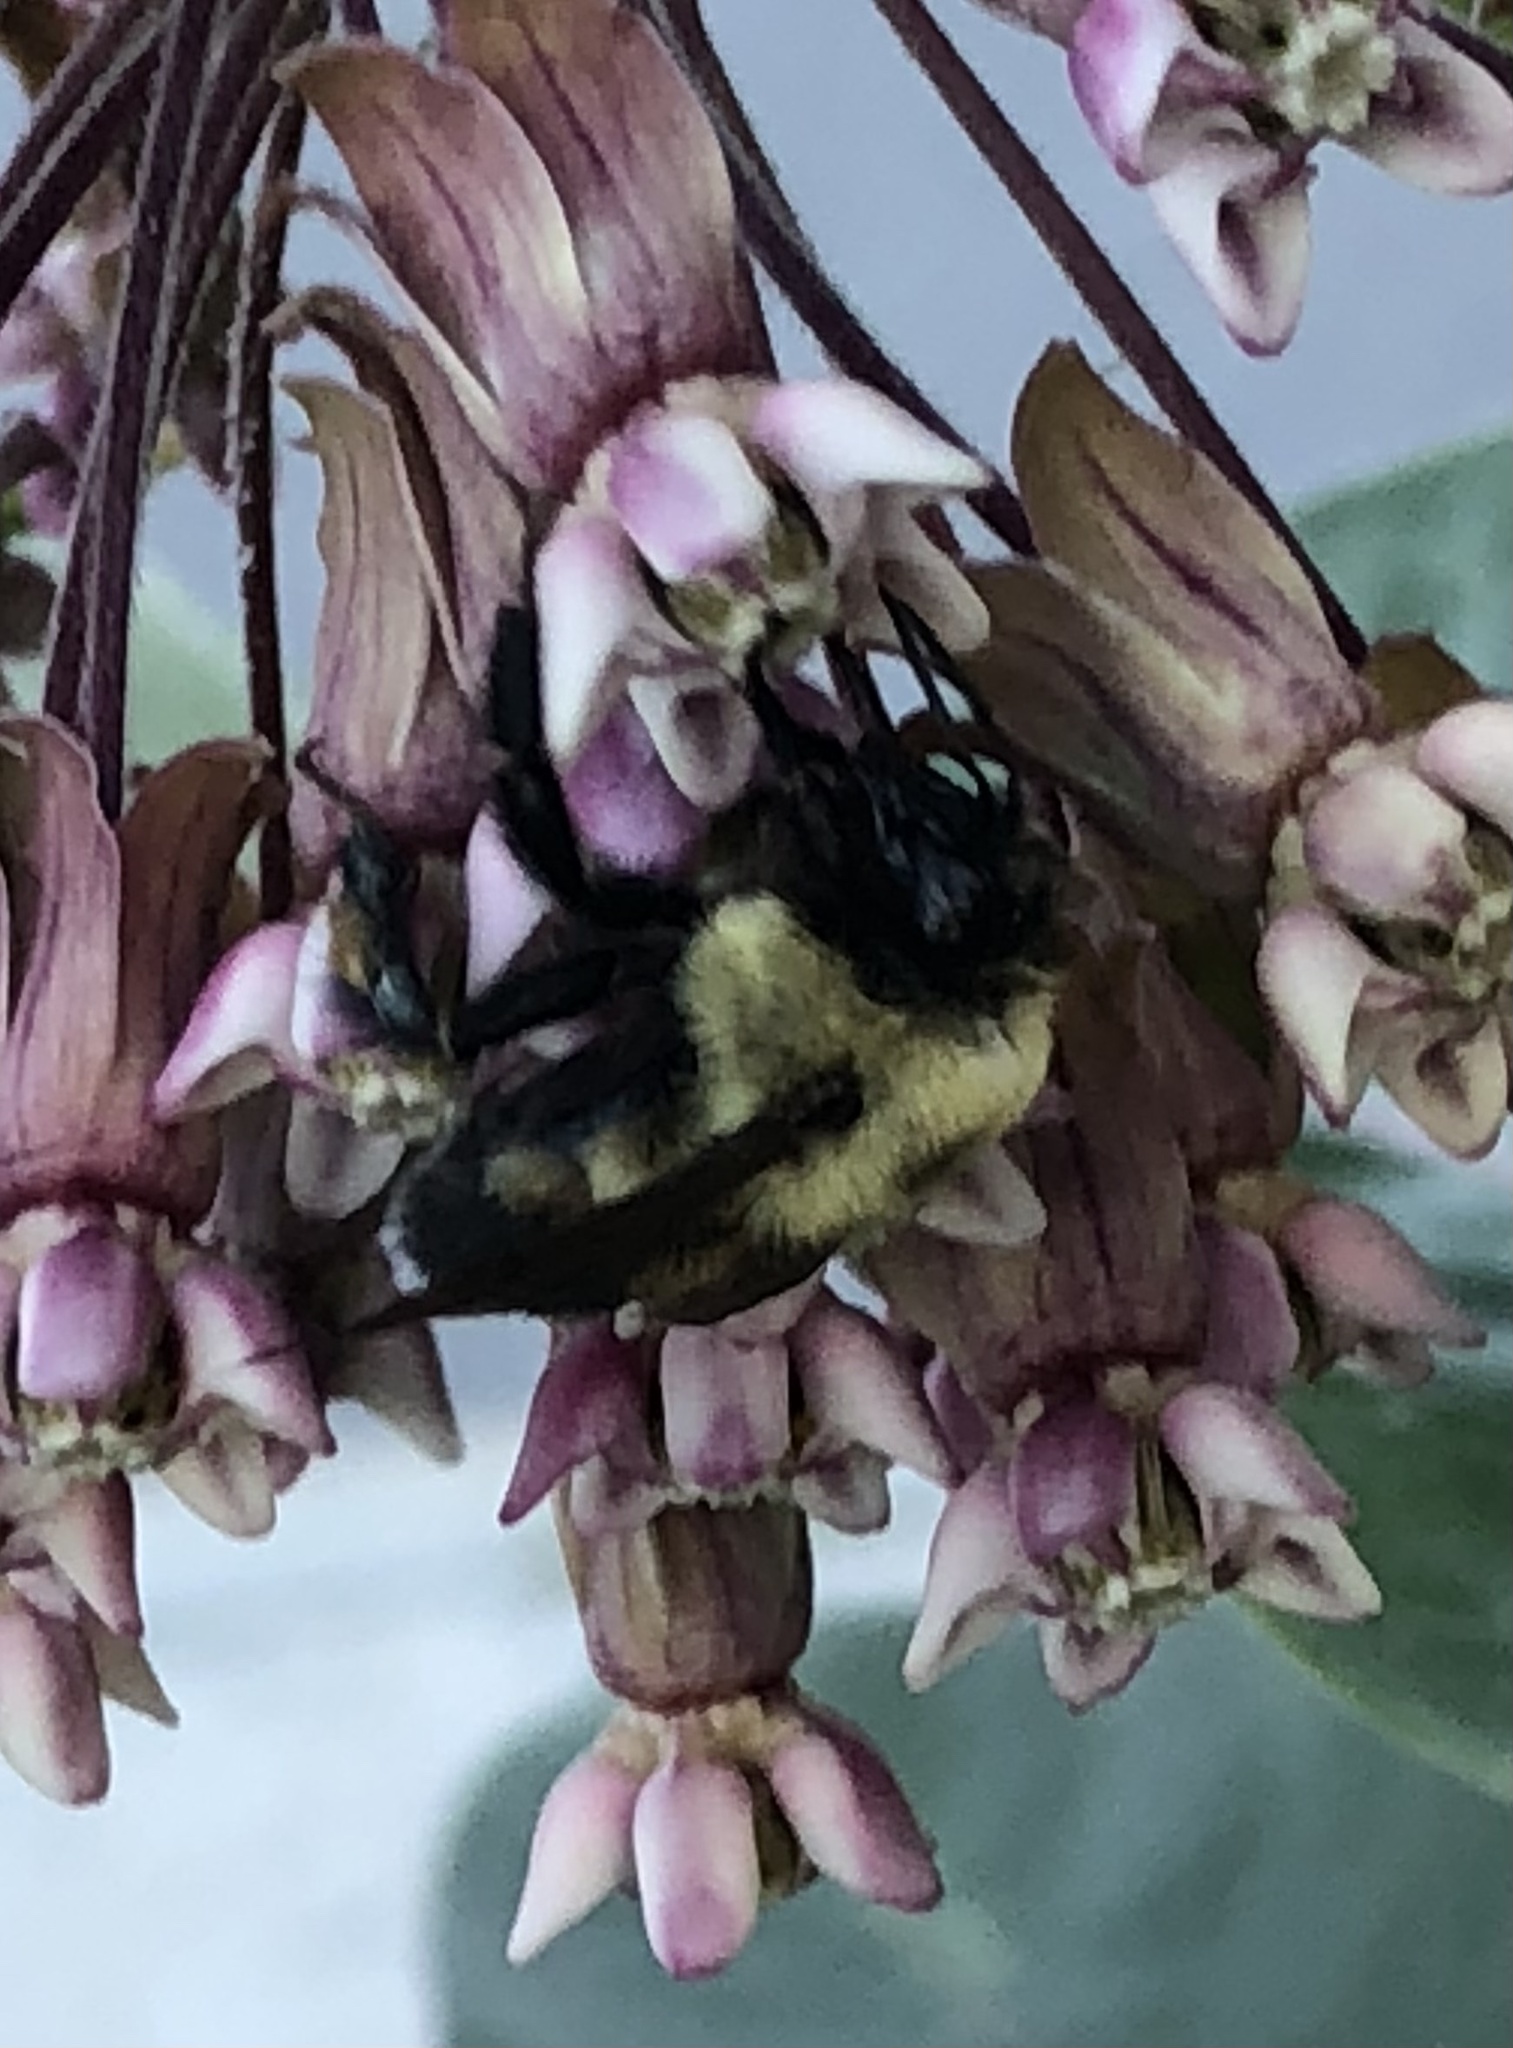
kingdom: Animalia
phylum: Arthropoda
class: Insecta
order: Hymenoptera
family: Apidae
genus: Bombus
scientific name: Bombus griseocollis
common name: Brown-belted bumble bee
